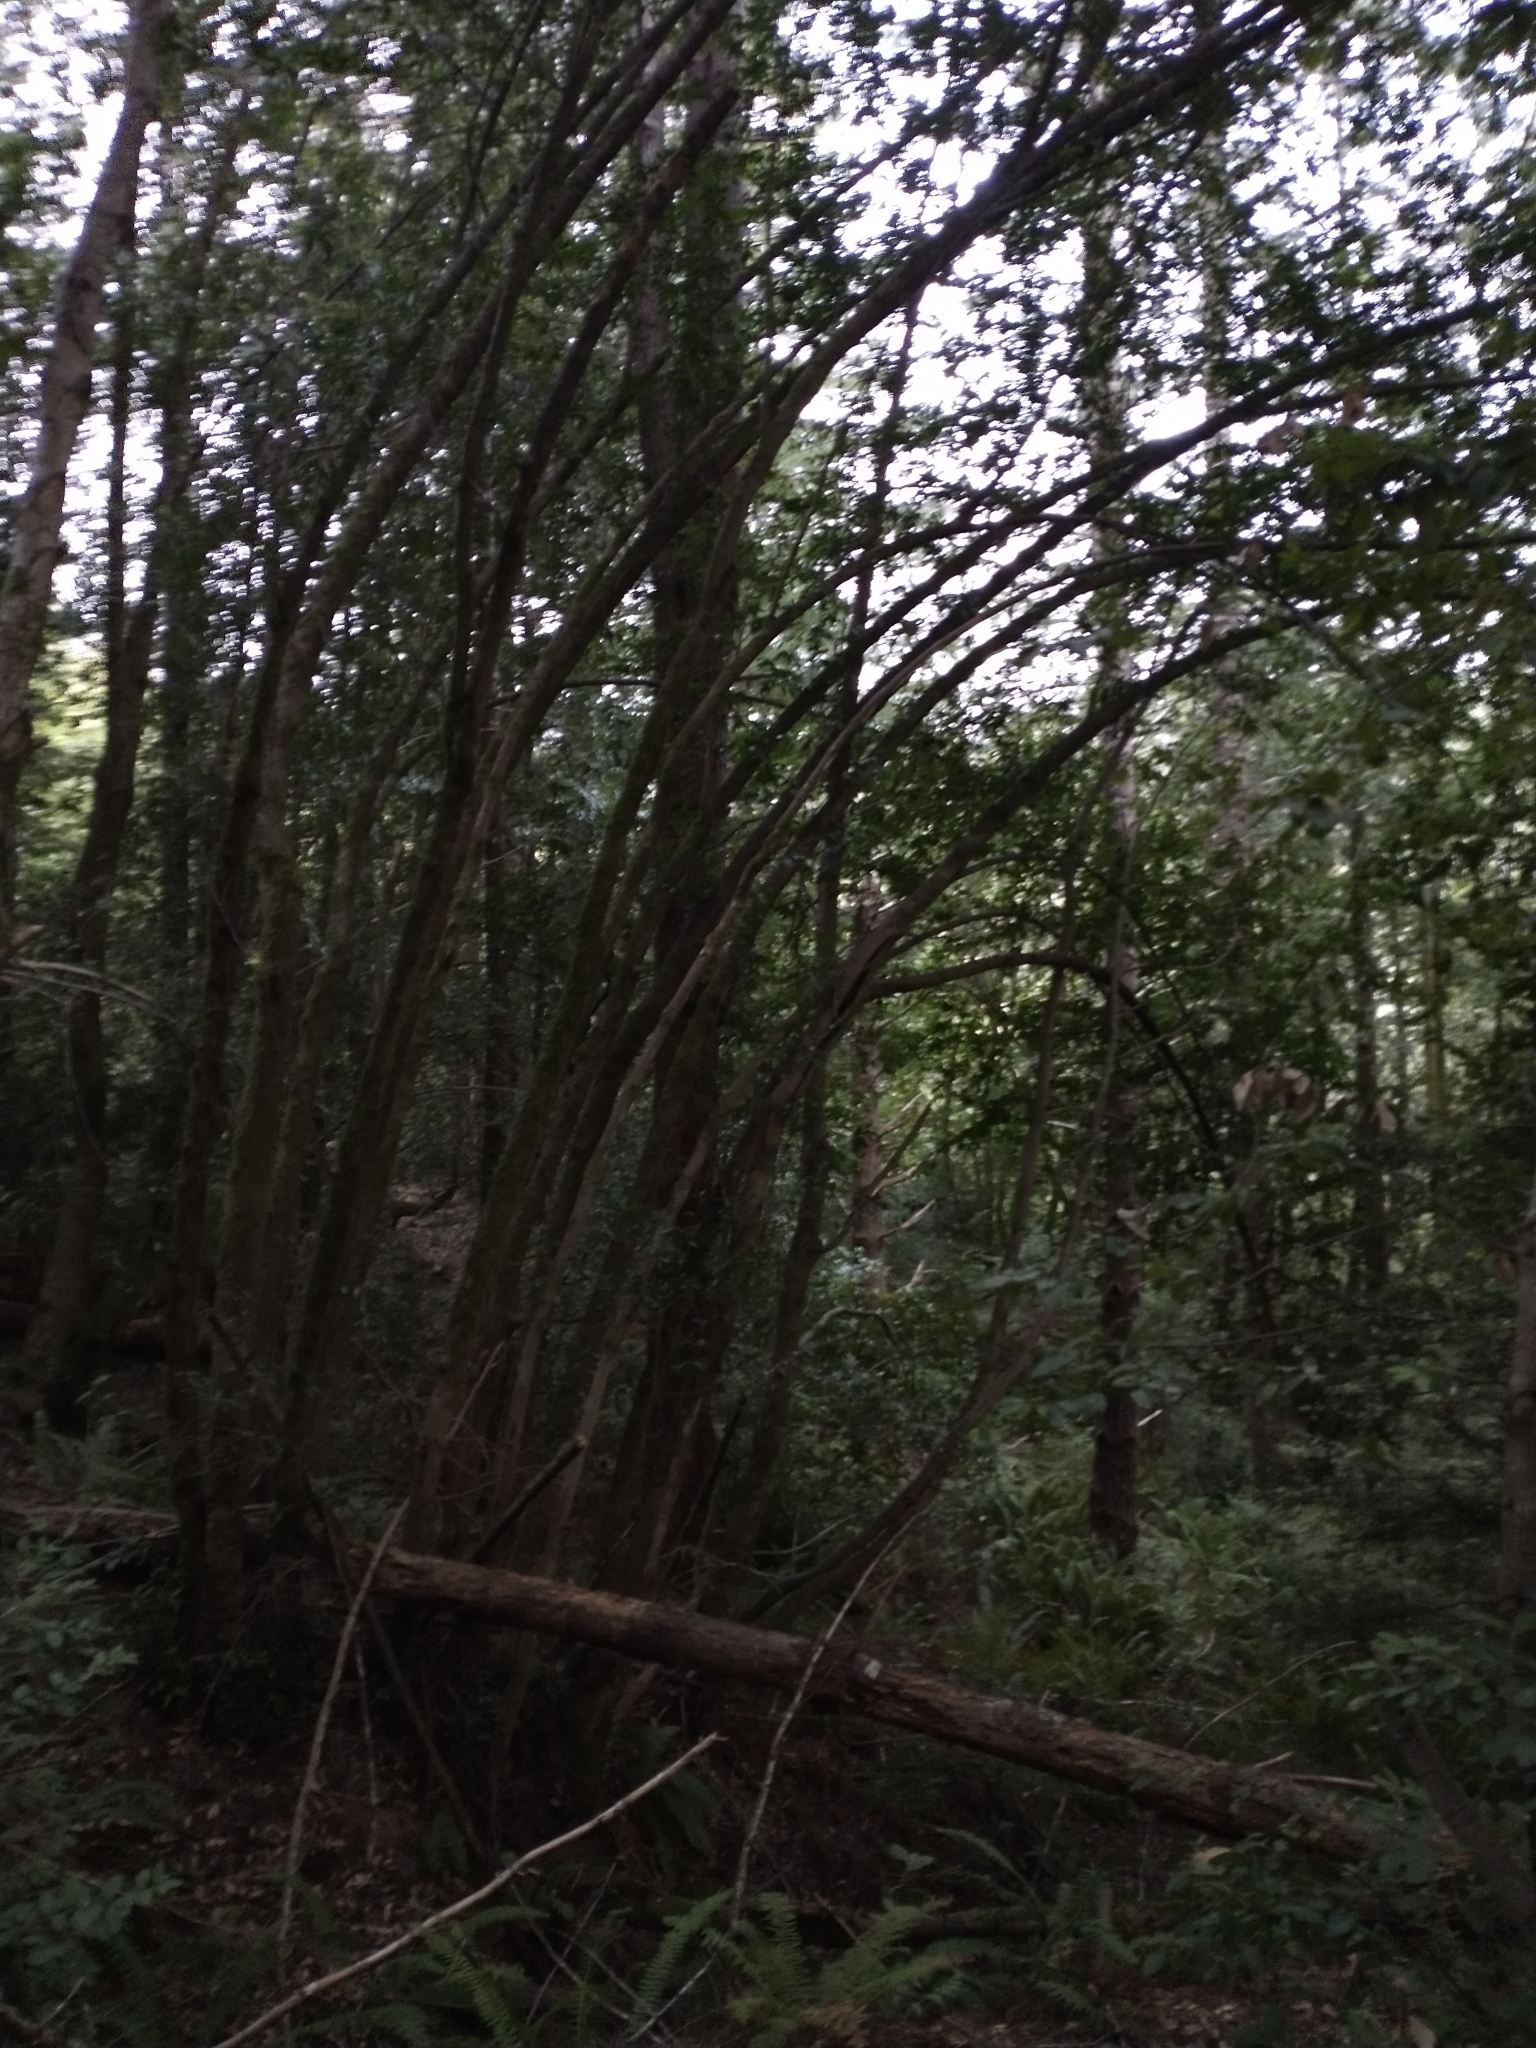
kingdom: Plantae
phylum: Tracheophyta
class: Magnoliopsida
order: Laurales
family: Lauraceae
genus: Umbellularia
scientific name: Umbellularia californica
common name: California bay
